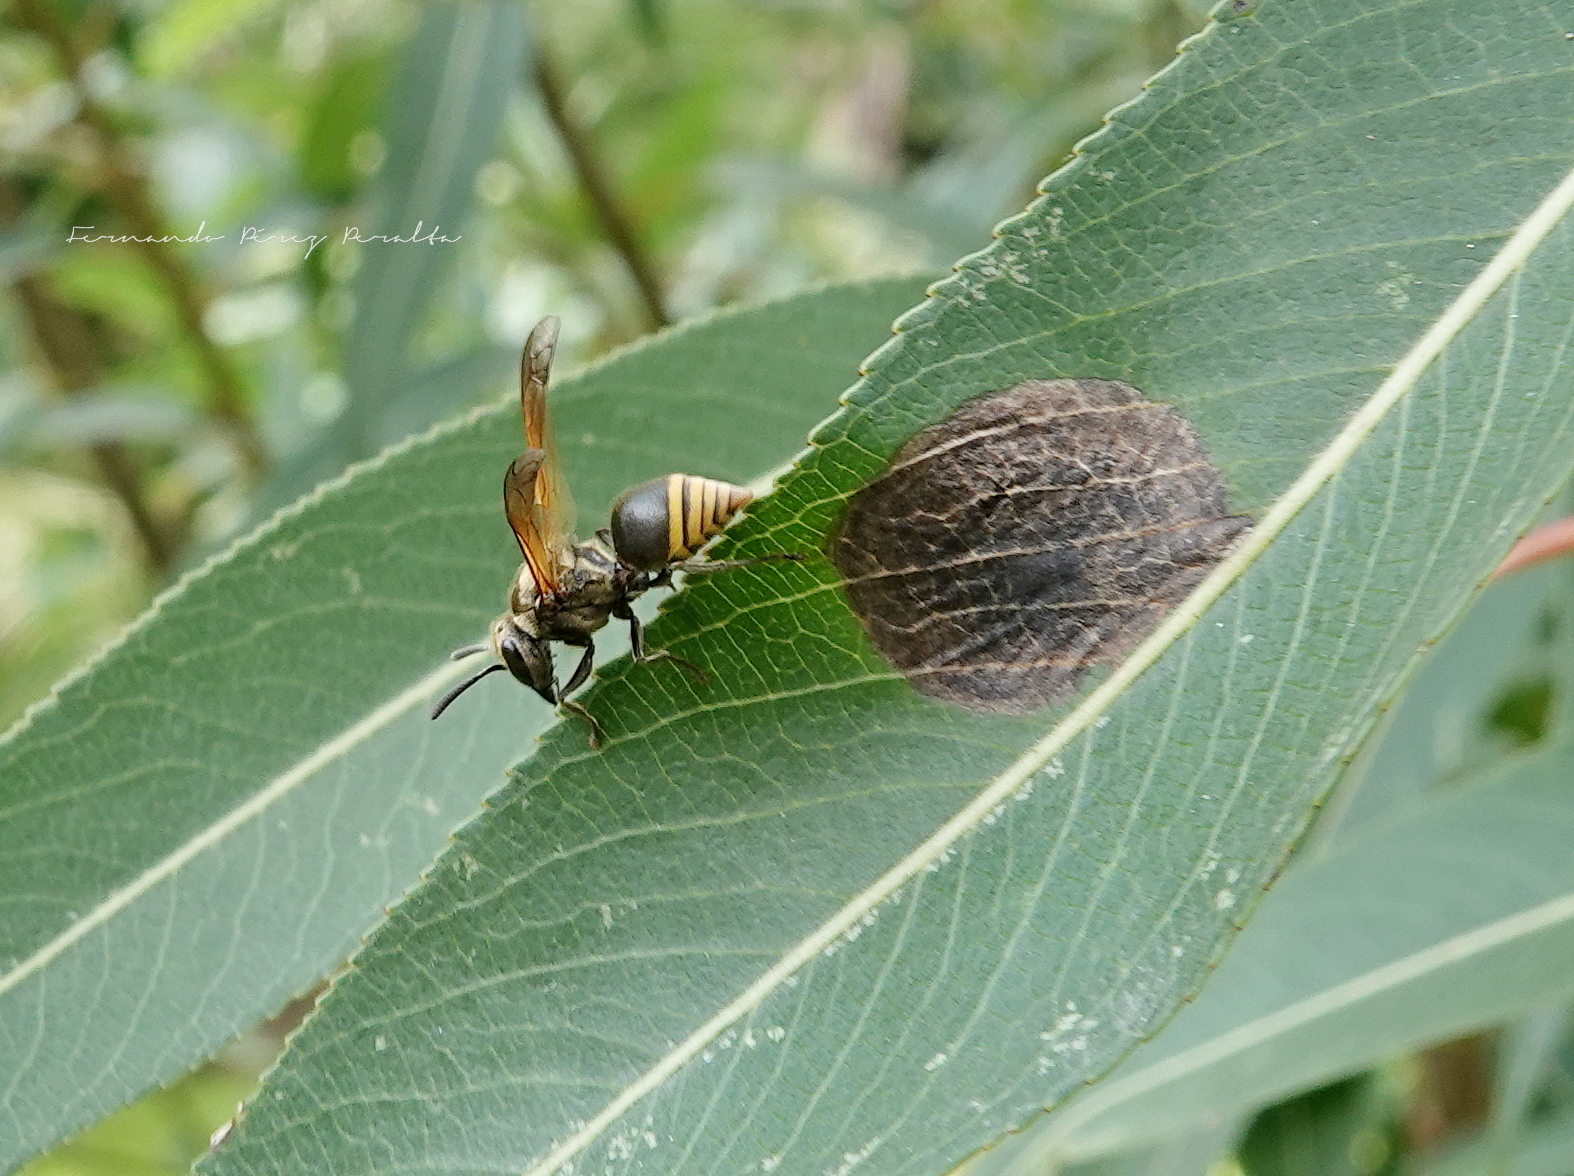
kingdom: Animalia
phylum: Arthropoda
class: Insecta
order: Hymenoptera
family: Vespidae
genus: Brachygastra
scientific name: Brachygastra mellifica
